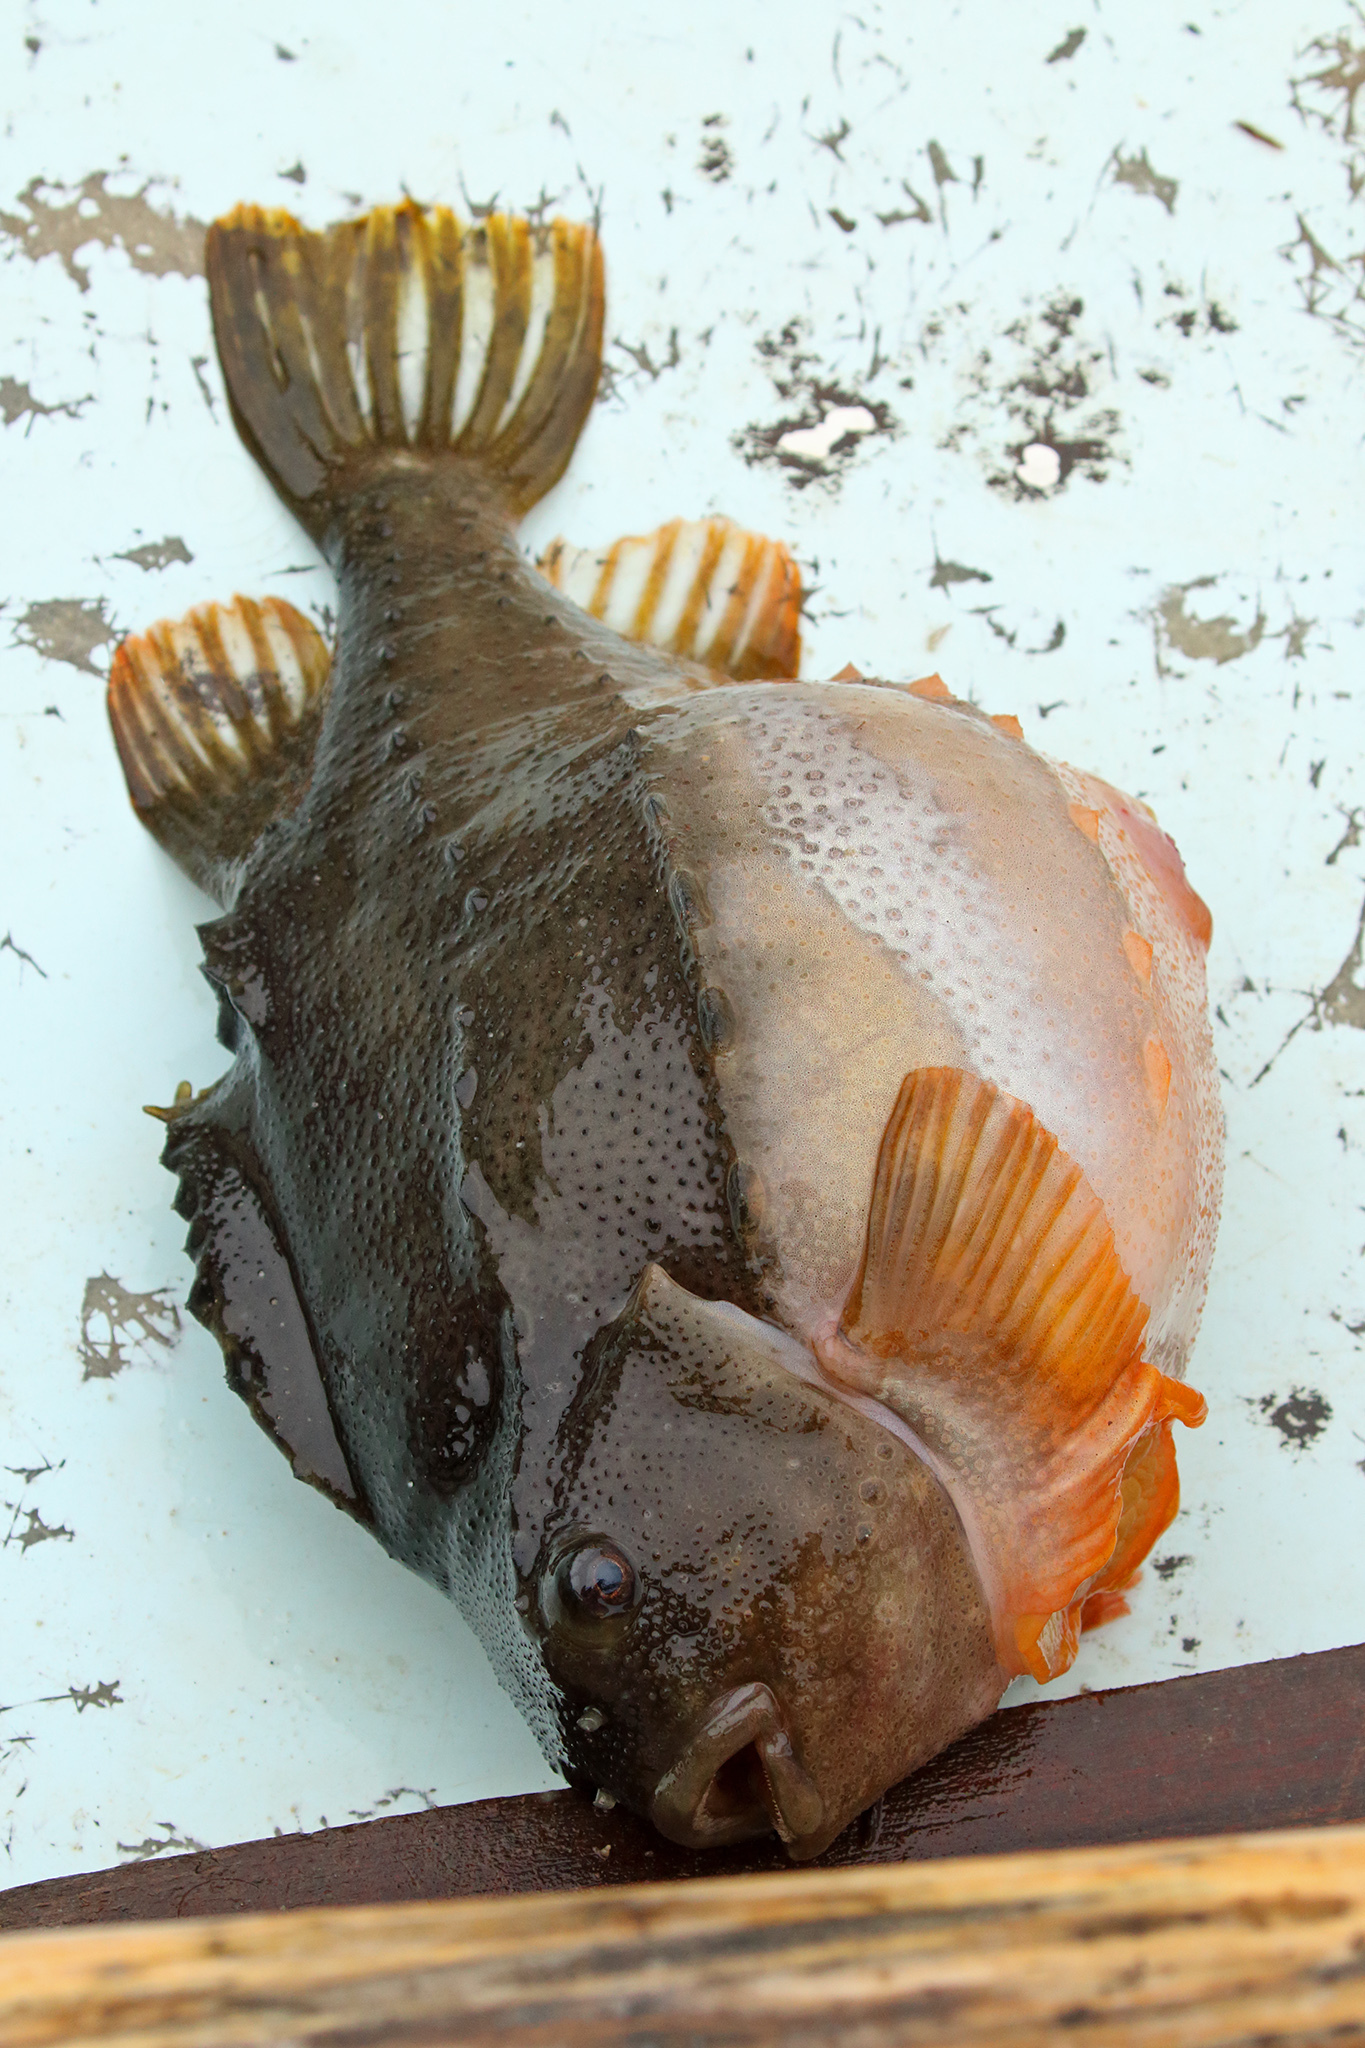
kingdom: Animalia
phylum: Chordata
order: Scorpaeniformes
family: Cyclopteridae
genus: Cyclopterus
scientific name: Cyclopterus lumpus
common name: Lumpsucker
